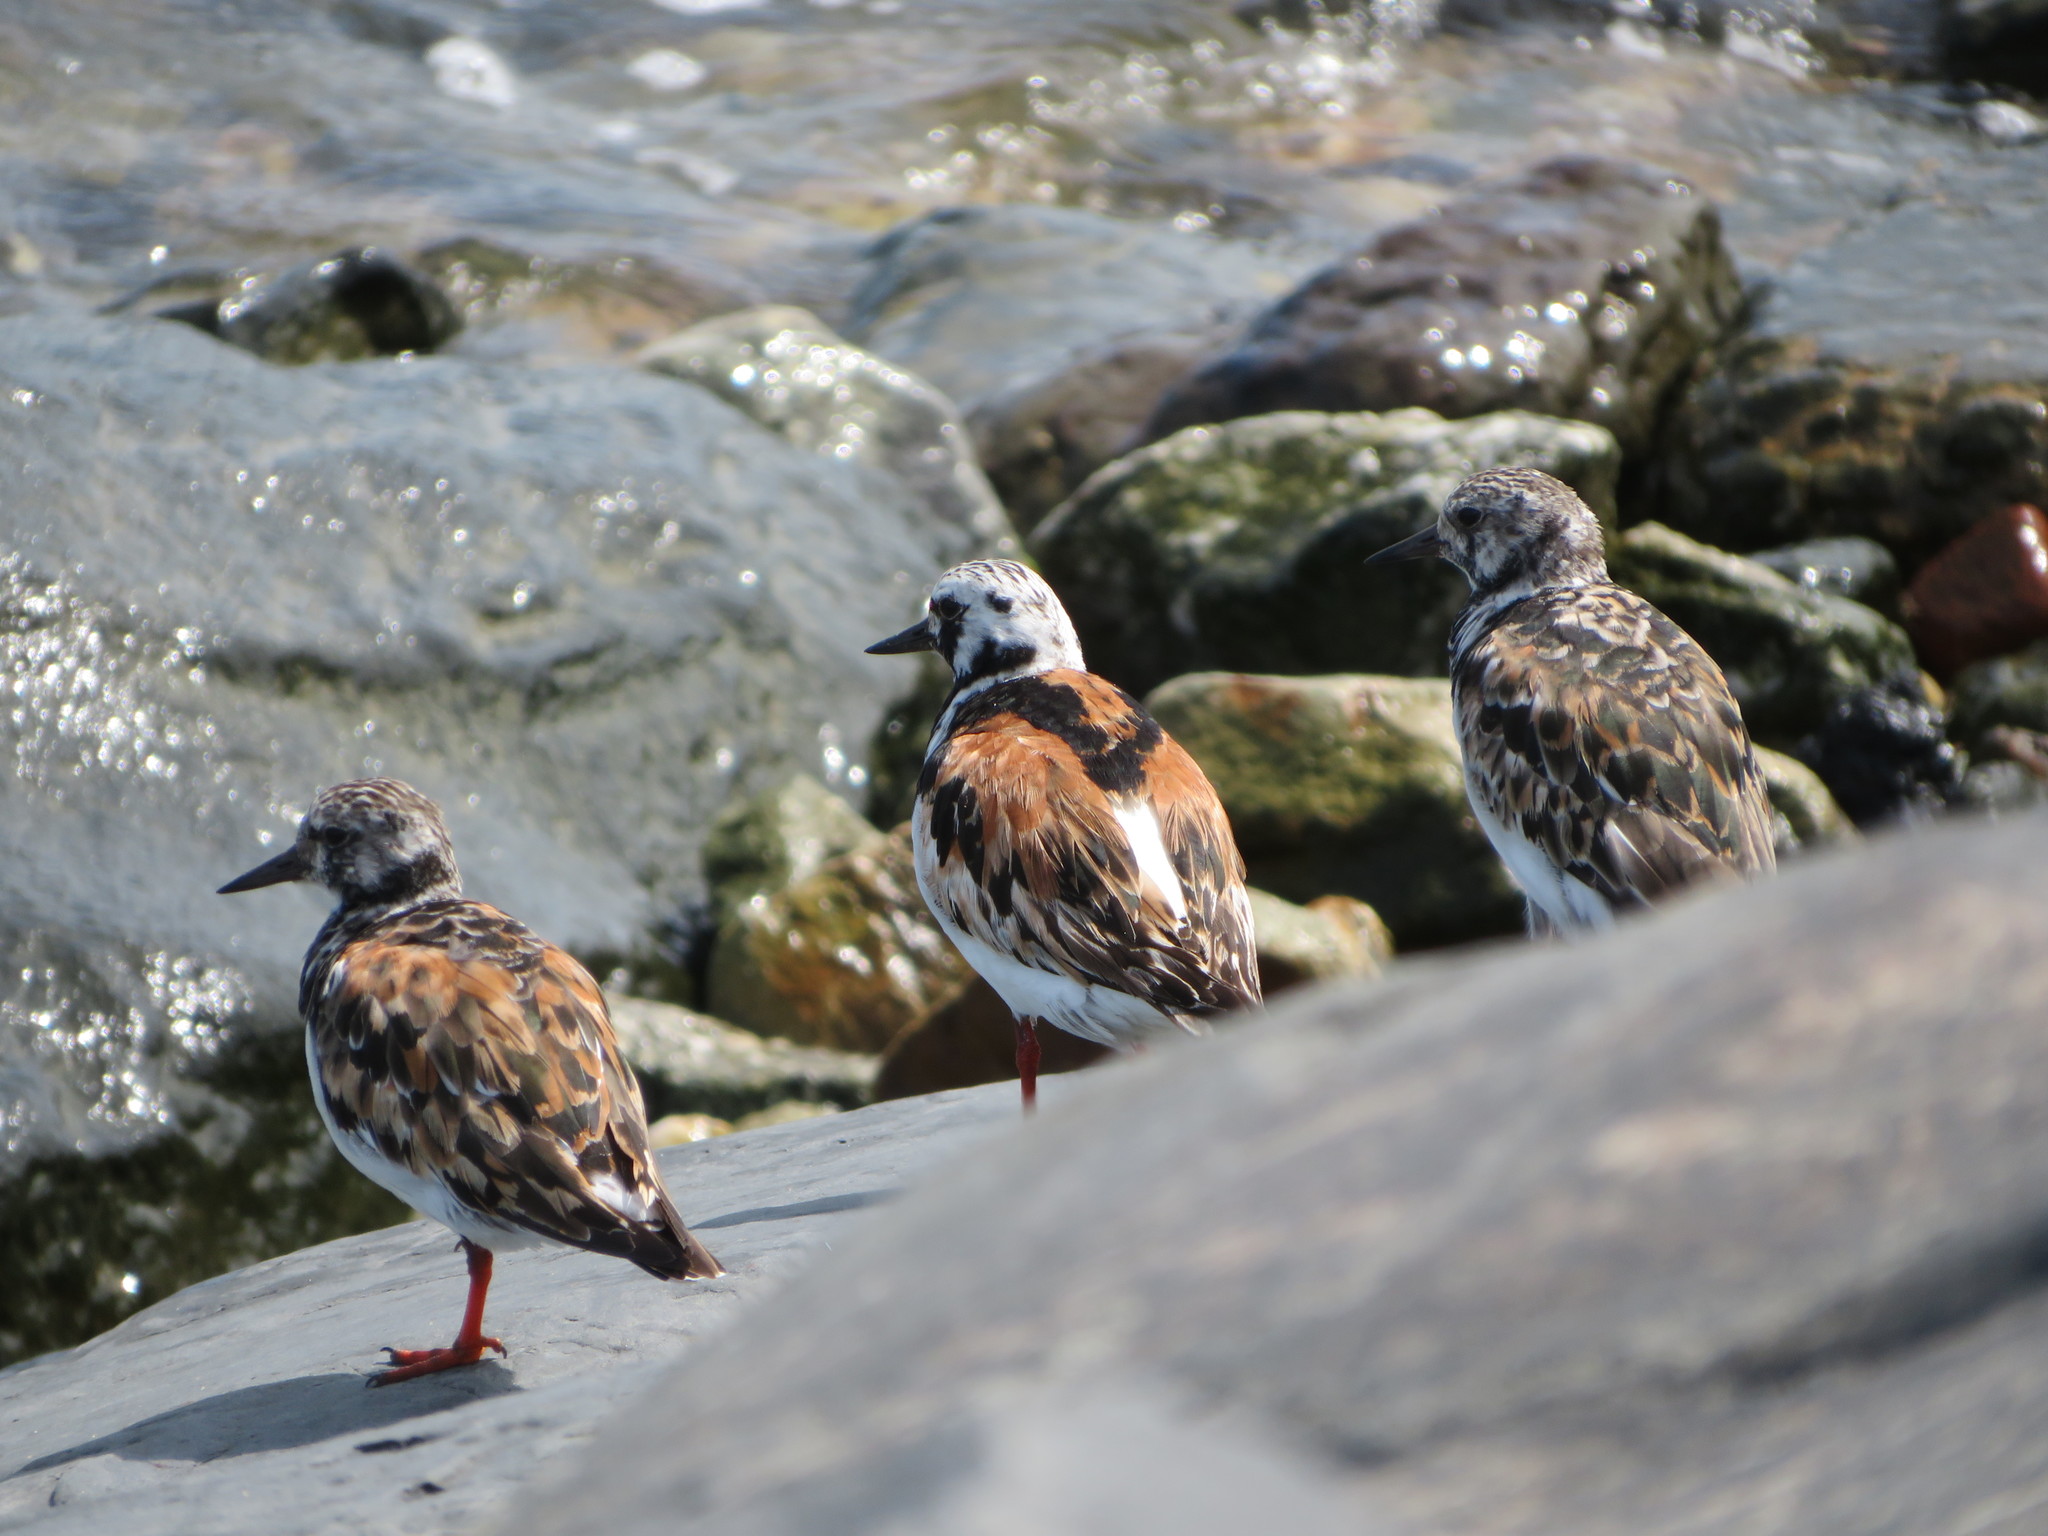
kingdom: Animalia
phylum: Chordata
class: Aves
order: Charadriiformes
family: Scolopacidae
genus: Arenaria
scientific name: Arenaria interpres
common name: Ruddy turnstone
